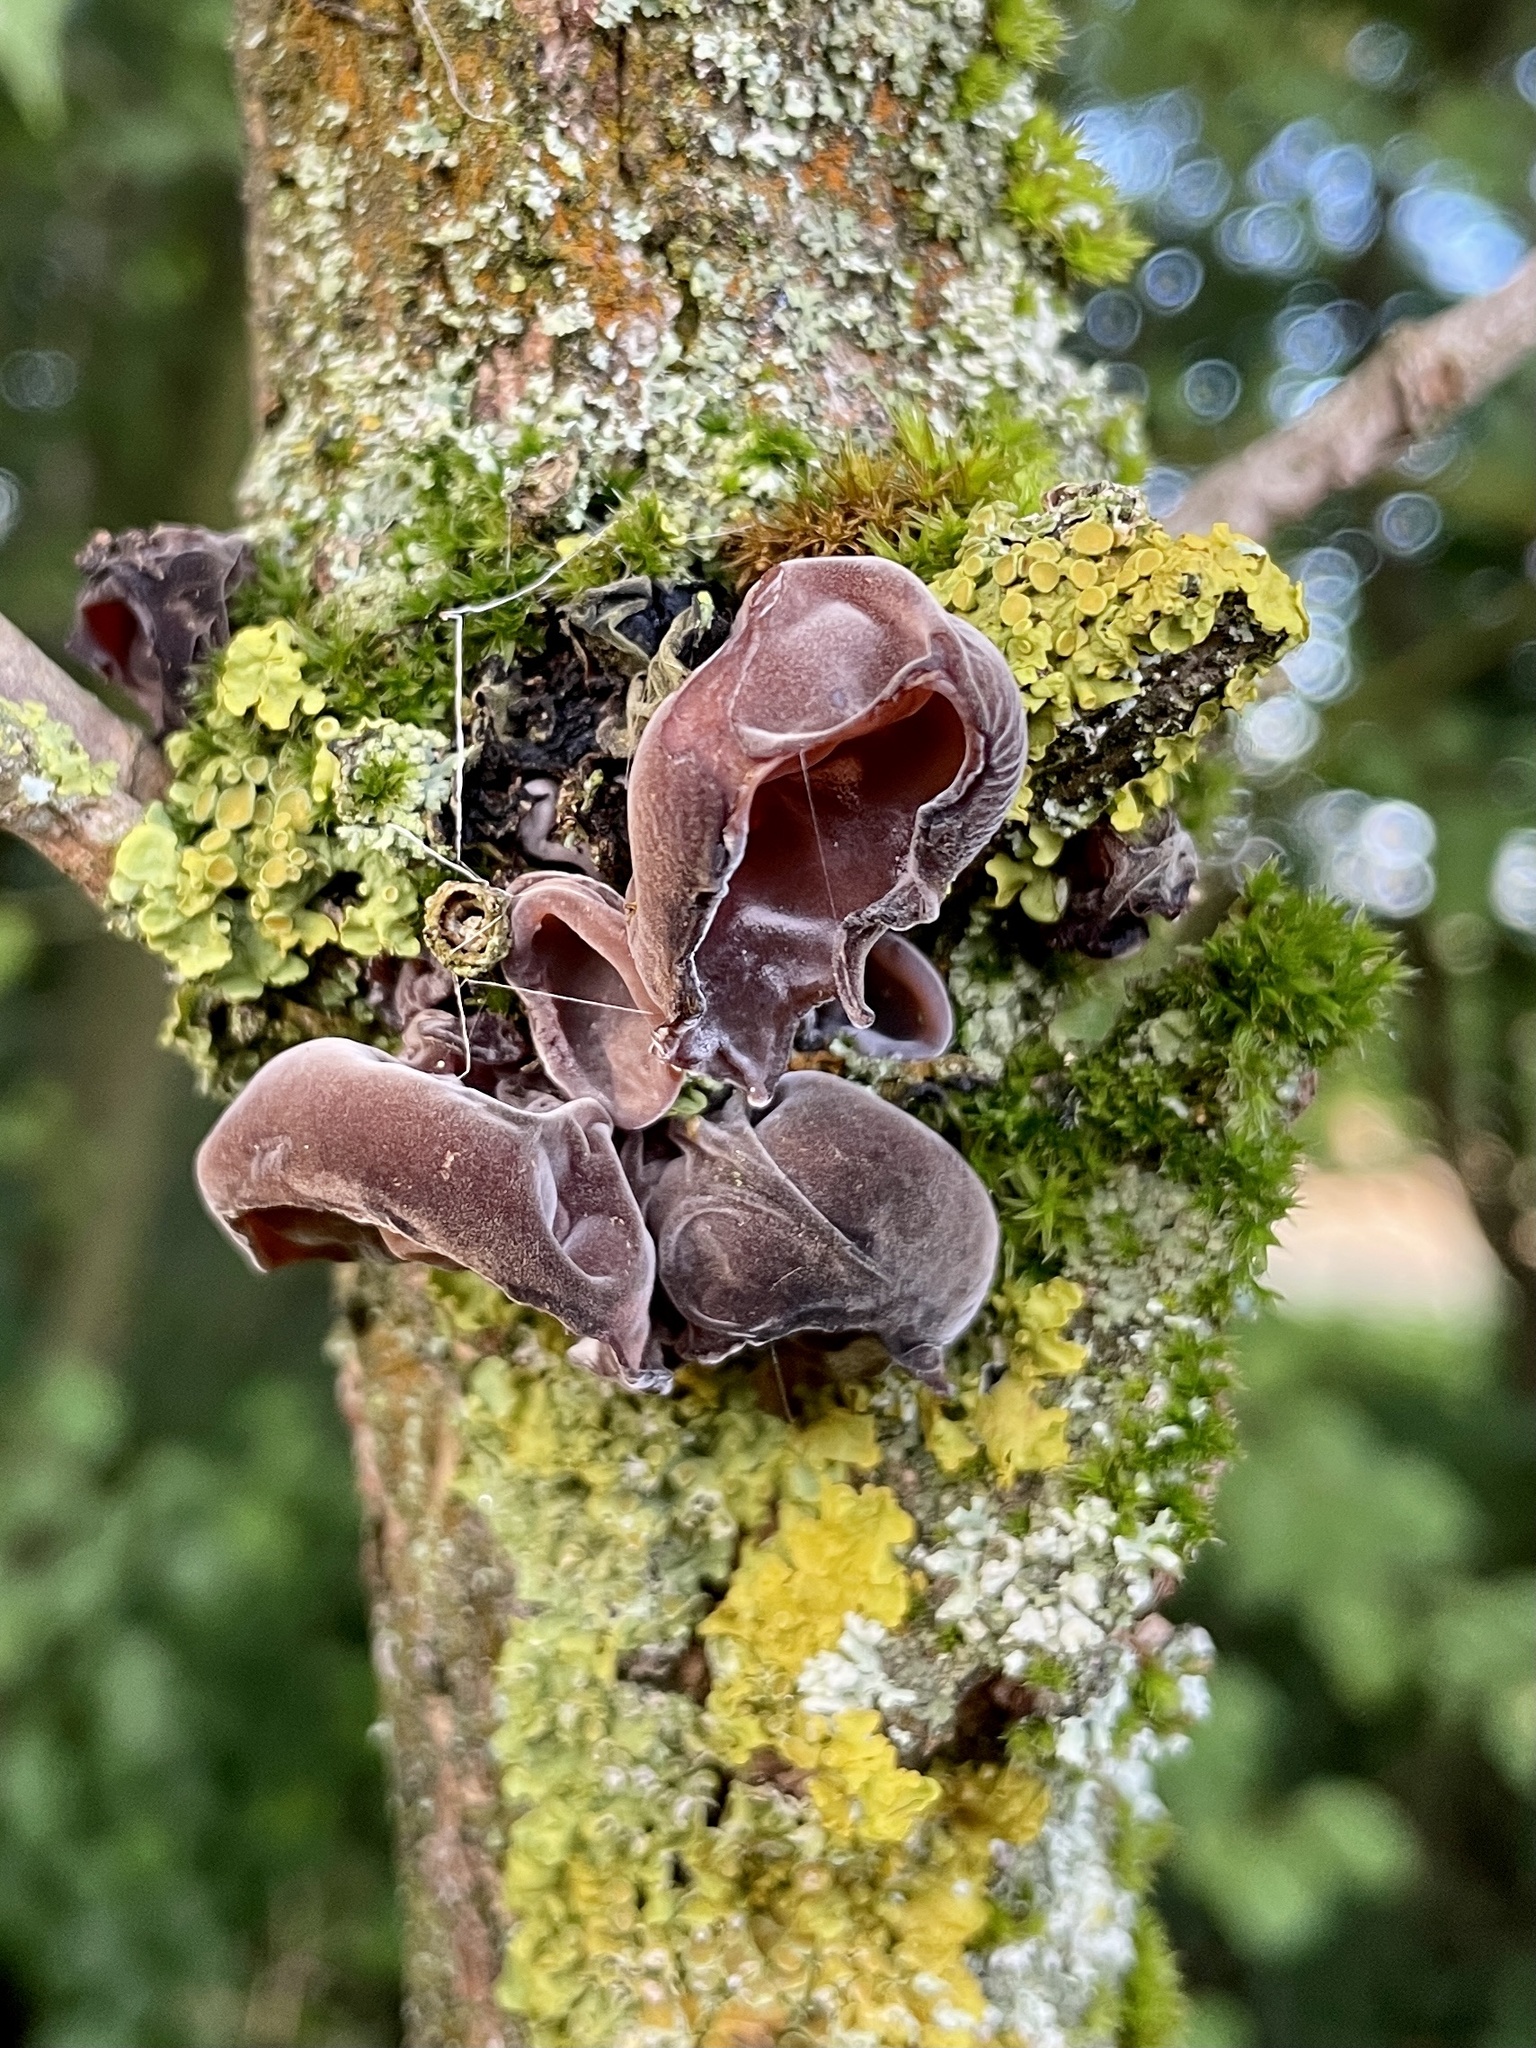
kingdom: Fungi
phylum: Basidiomycota
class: Agaricomycetes
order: Auriculariales
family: Auriculariaceae
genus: Auricularia
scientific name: Auricularia auricula-judae
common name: Jelly ear
